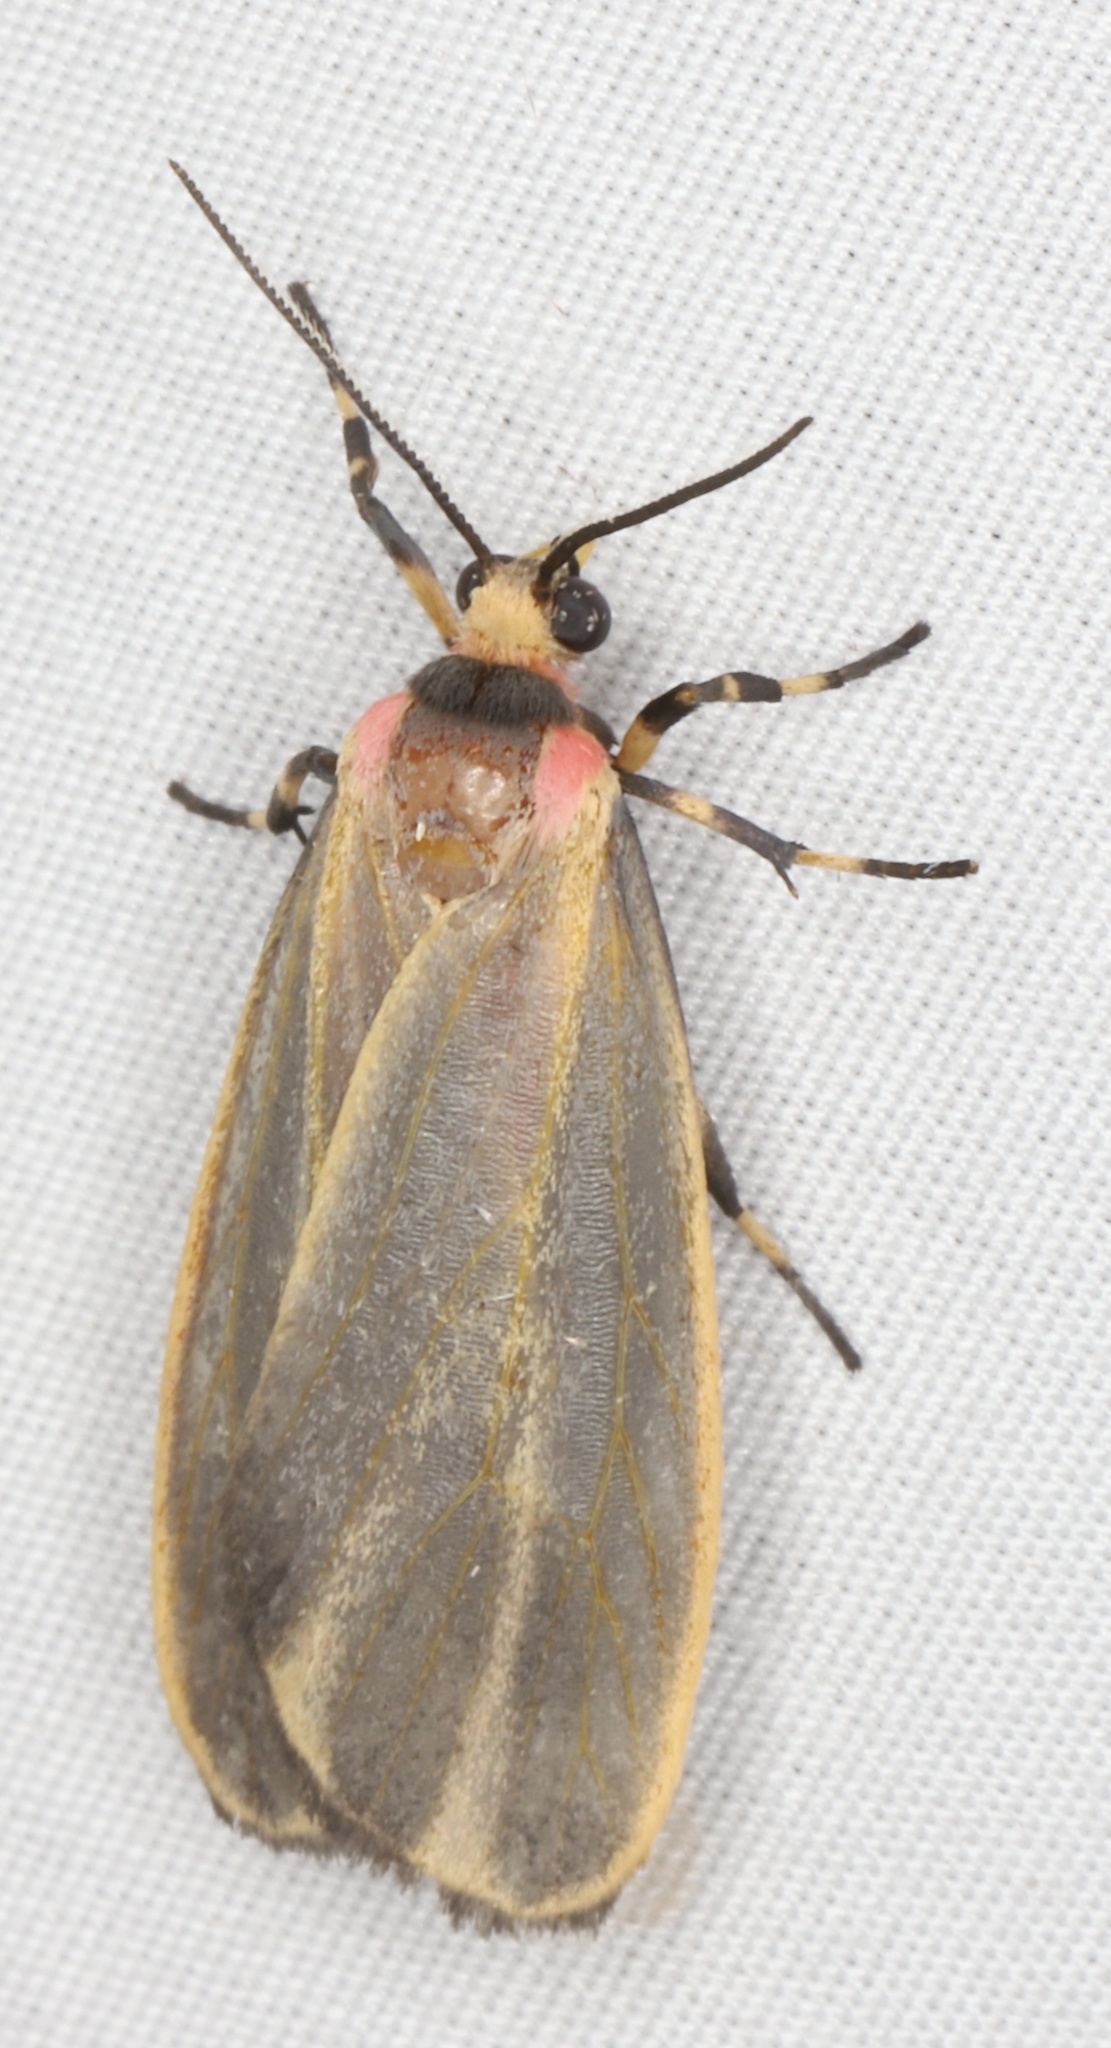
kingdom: Animalia
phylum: Arthropoda
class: Insecta
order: Lepidoptera
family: Erebidae
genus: Hypoprepia
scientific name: Hypoprepia fucosa
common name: Painted lichen moth
